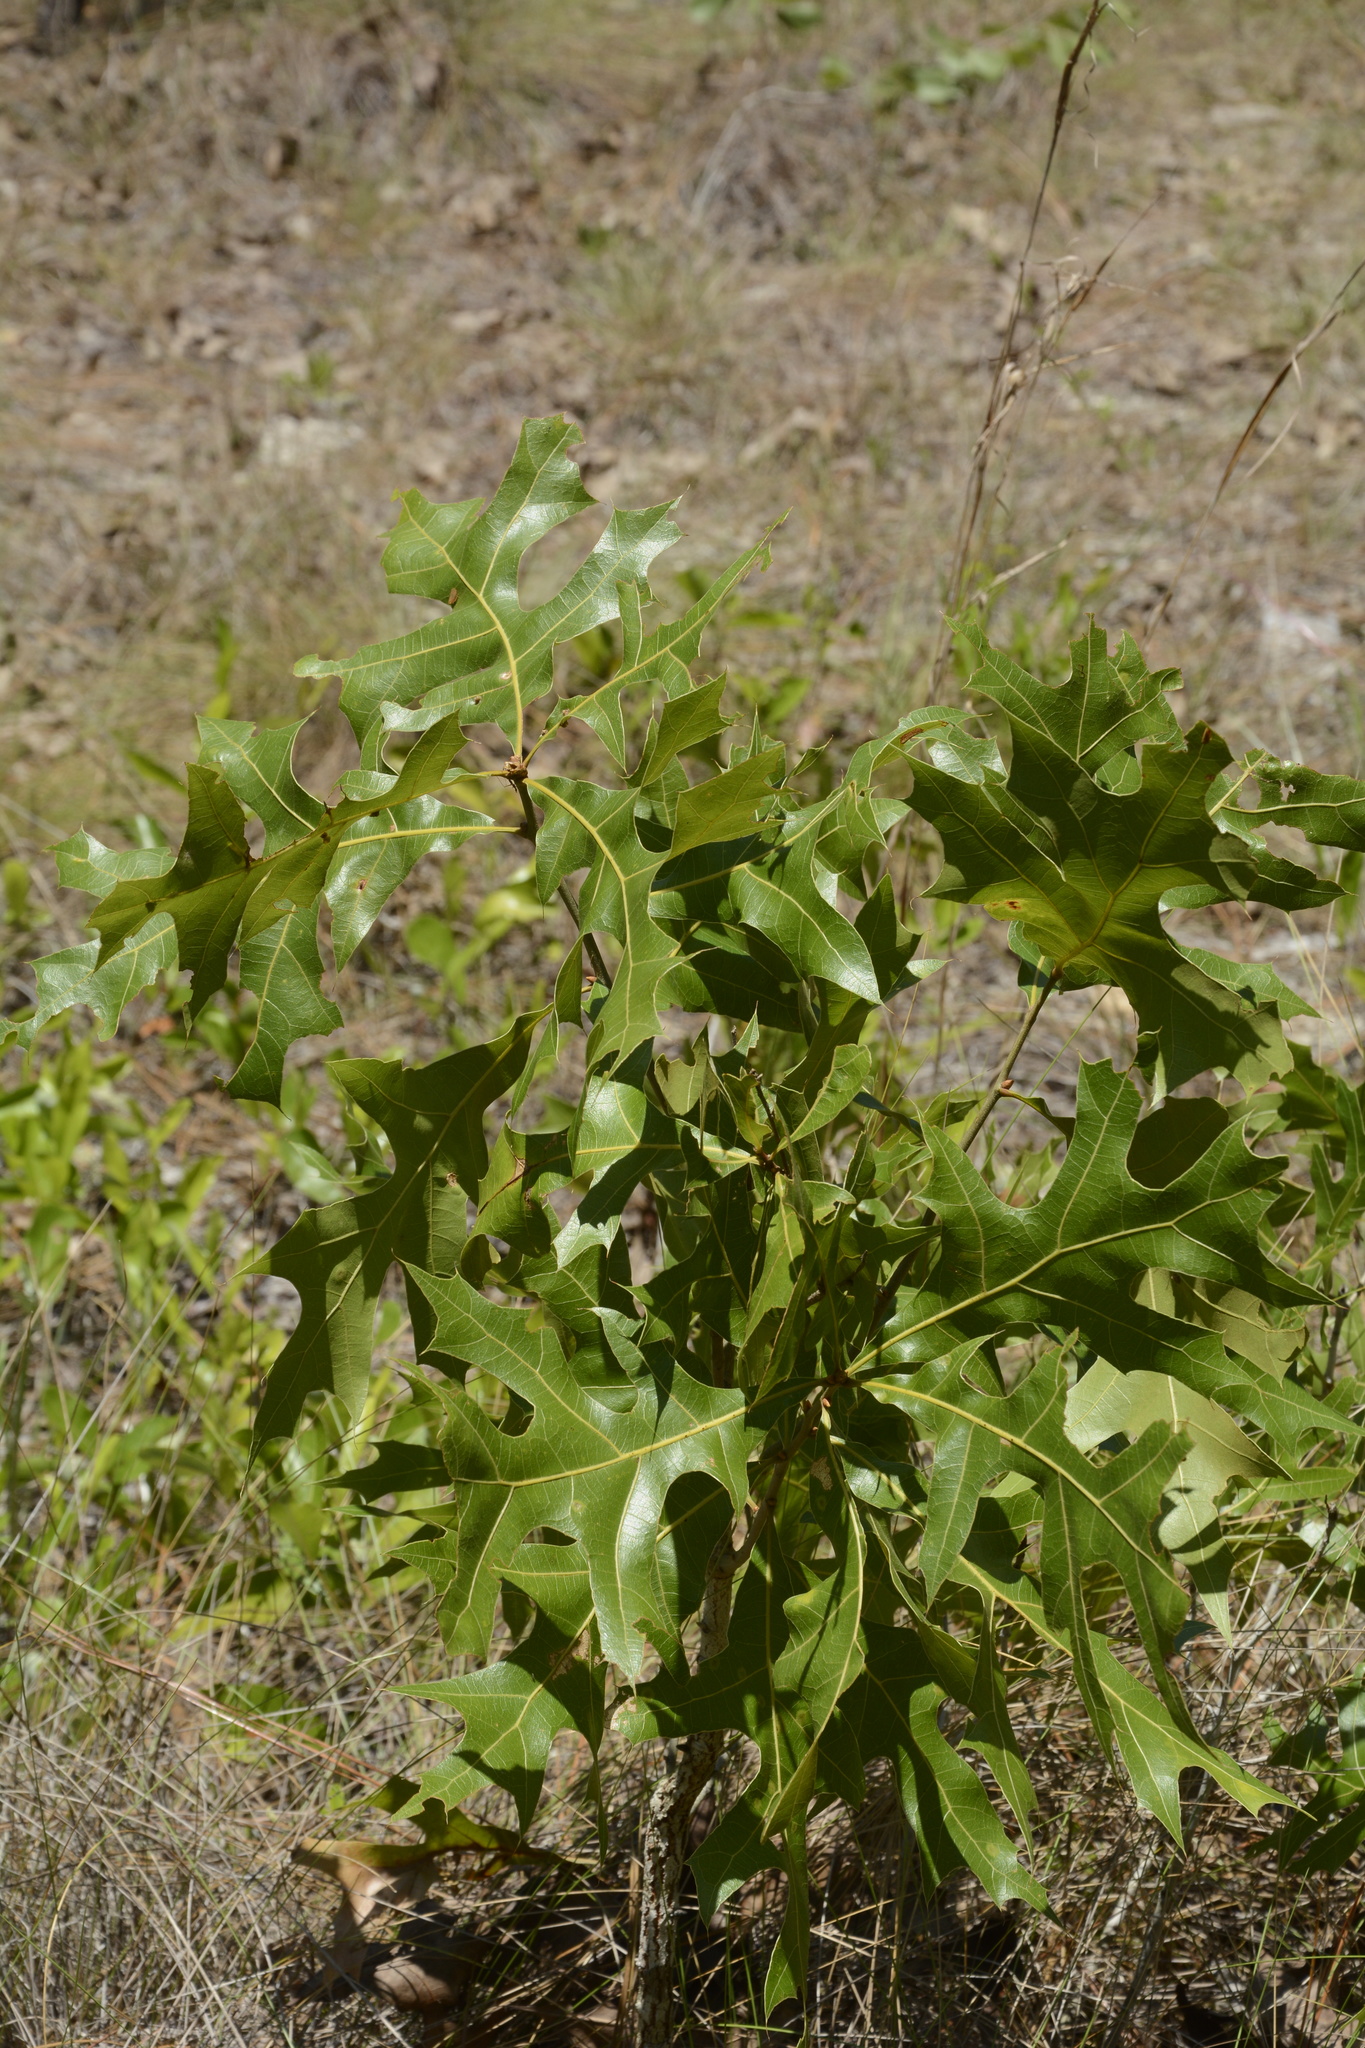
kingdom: Plantae
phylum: Tracheophyta
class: Magnoliopsida
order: Fagales
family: Fagaceae
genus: Quercus
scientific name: Quercus laevis
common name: Turkey oak
